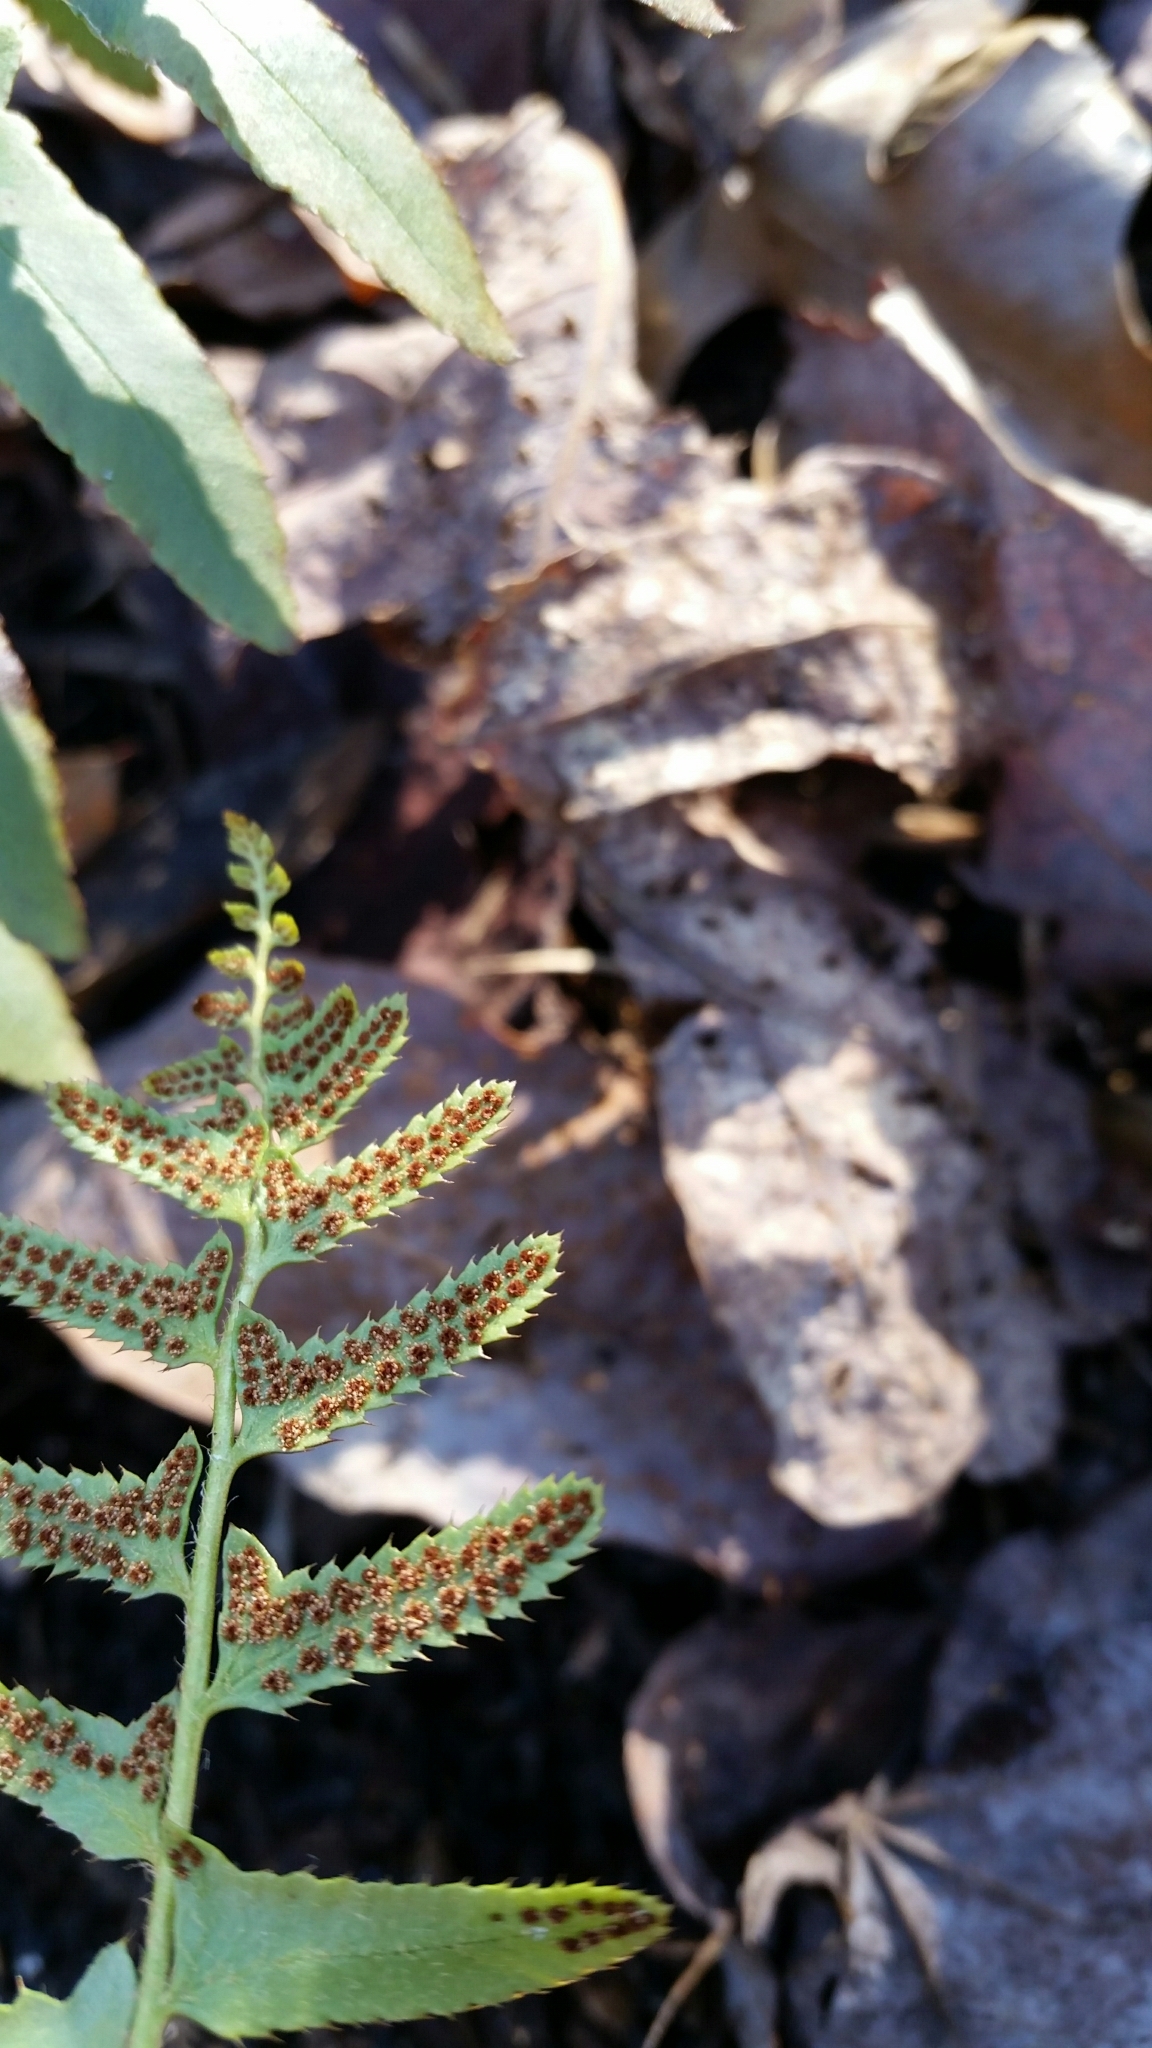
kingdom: Plantae
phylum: Tracheophyta
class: Polypodiopsida
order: Polypodiales
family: Dryopteridaceae
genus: Polystichum
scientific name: Polystichum acrostichoides
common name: Christmas fern
